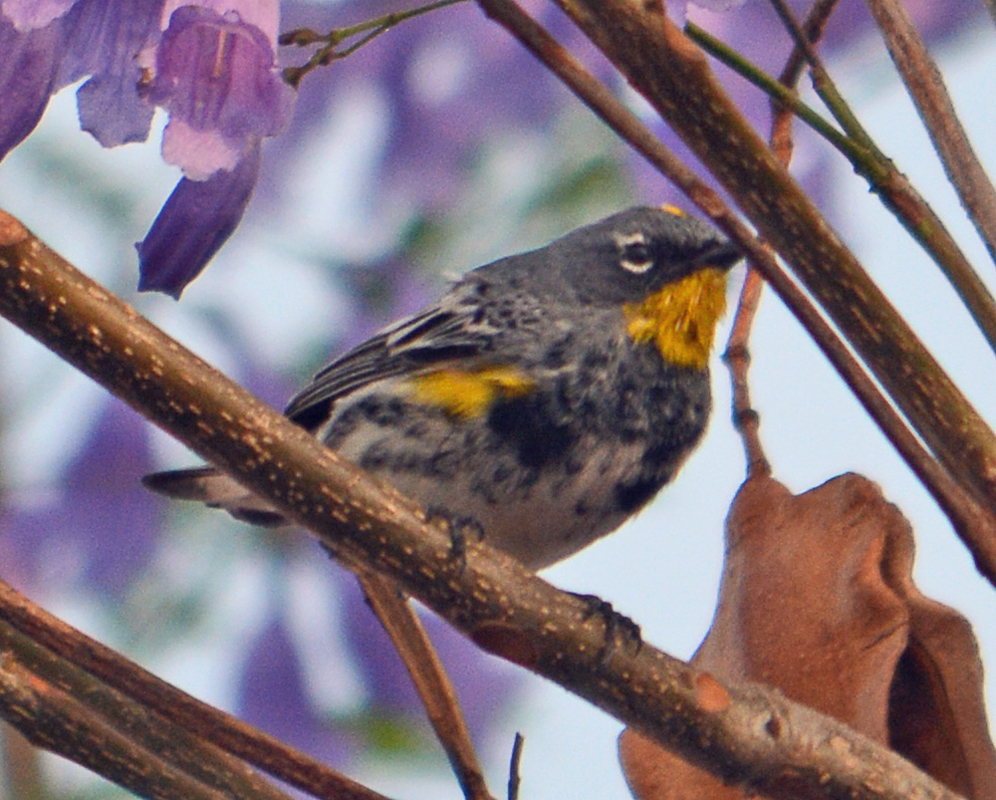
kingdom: Animalia
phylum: Chordata
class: Aves
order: Passeriformes
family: Parulidae
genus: Setophaga
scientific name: Setophaga auduboni
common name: Audubon's warbler
